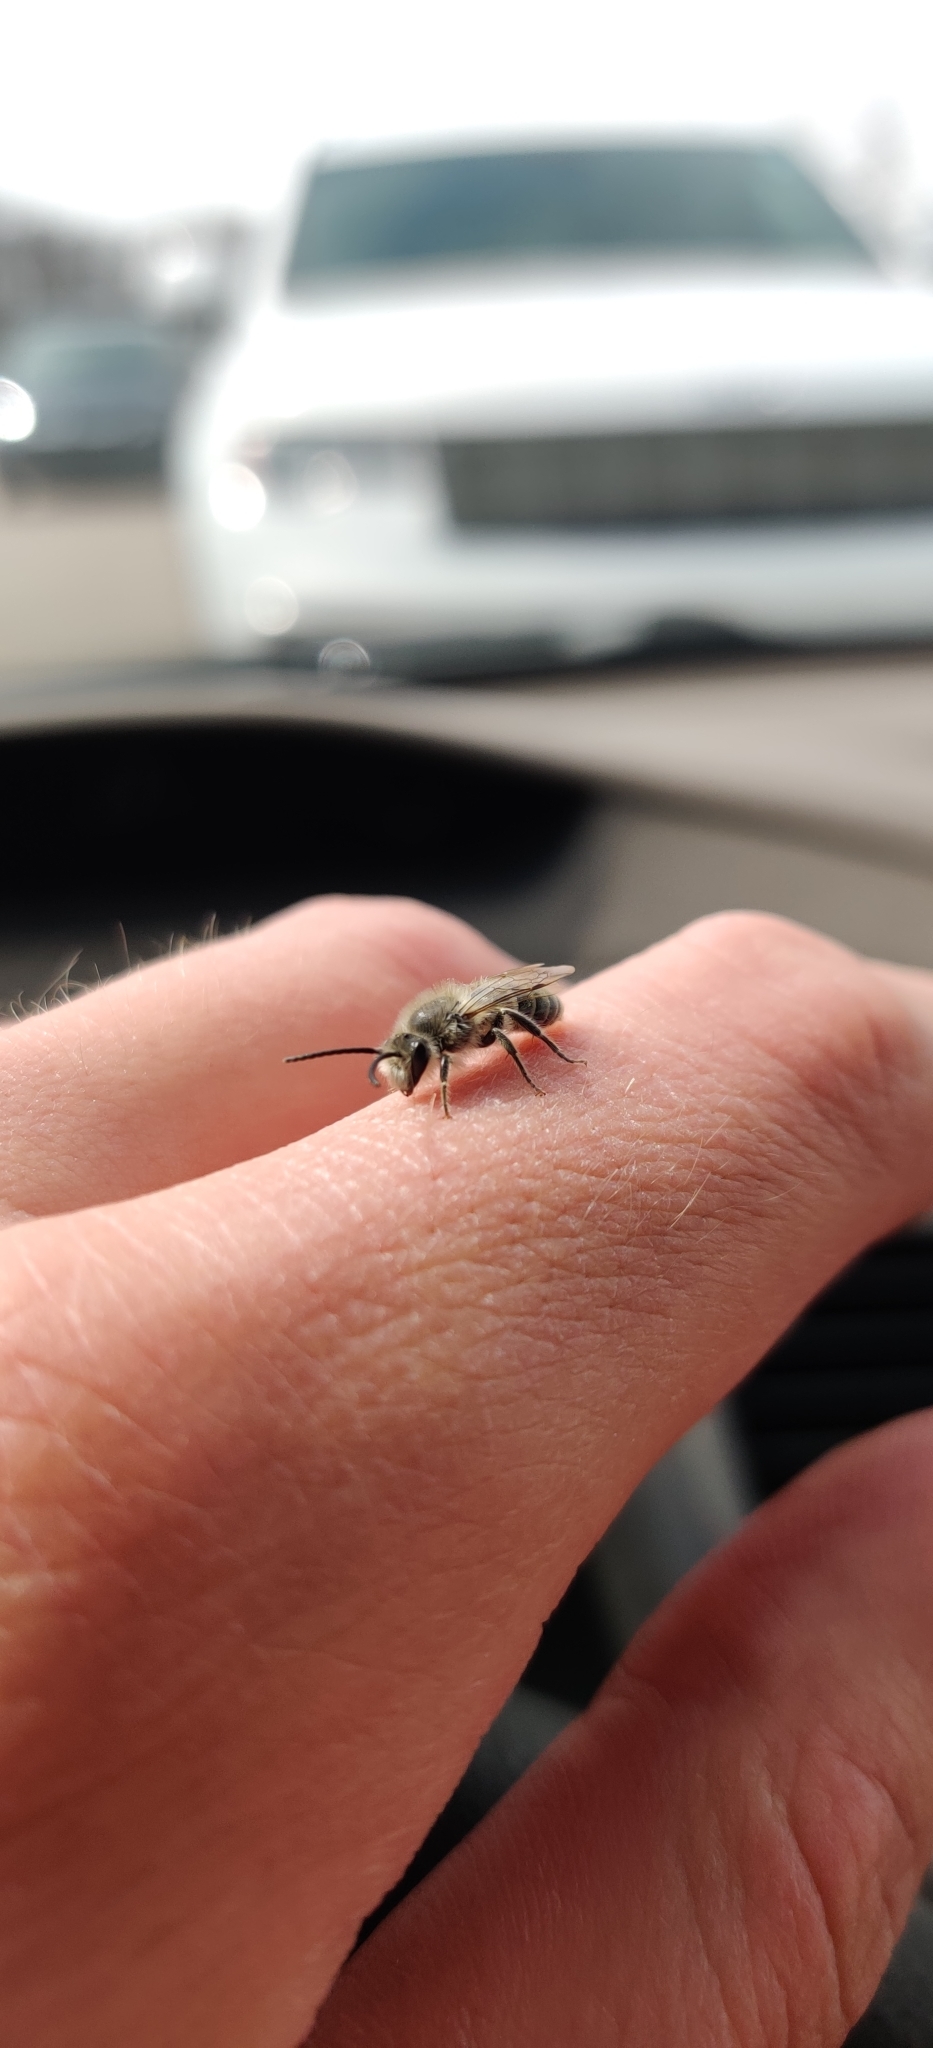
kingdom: Animalia
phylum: Arthropoda
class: Insecta
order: Hymenoptera
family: Colletidae
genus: Colletes
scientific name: Colletes inaequalis
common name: Unequal cellophane bee
